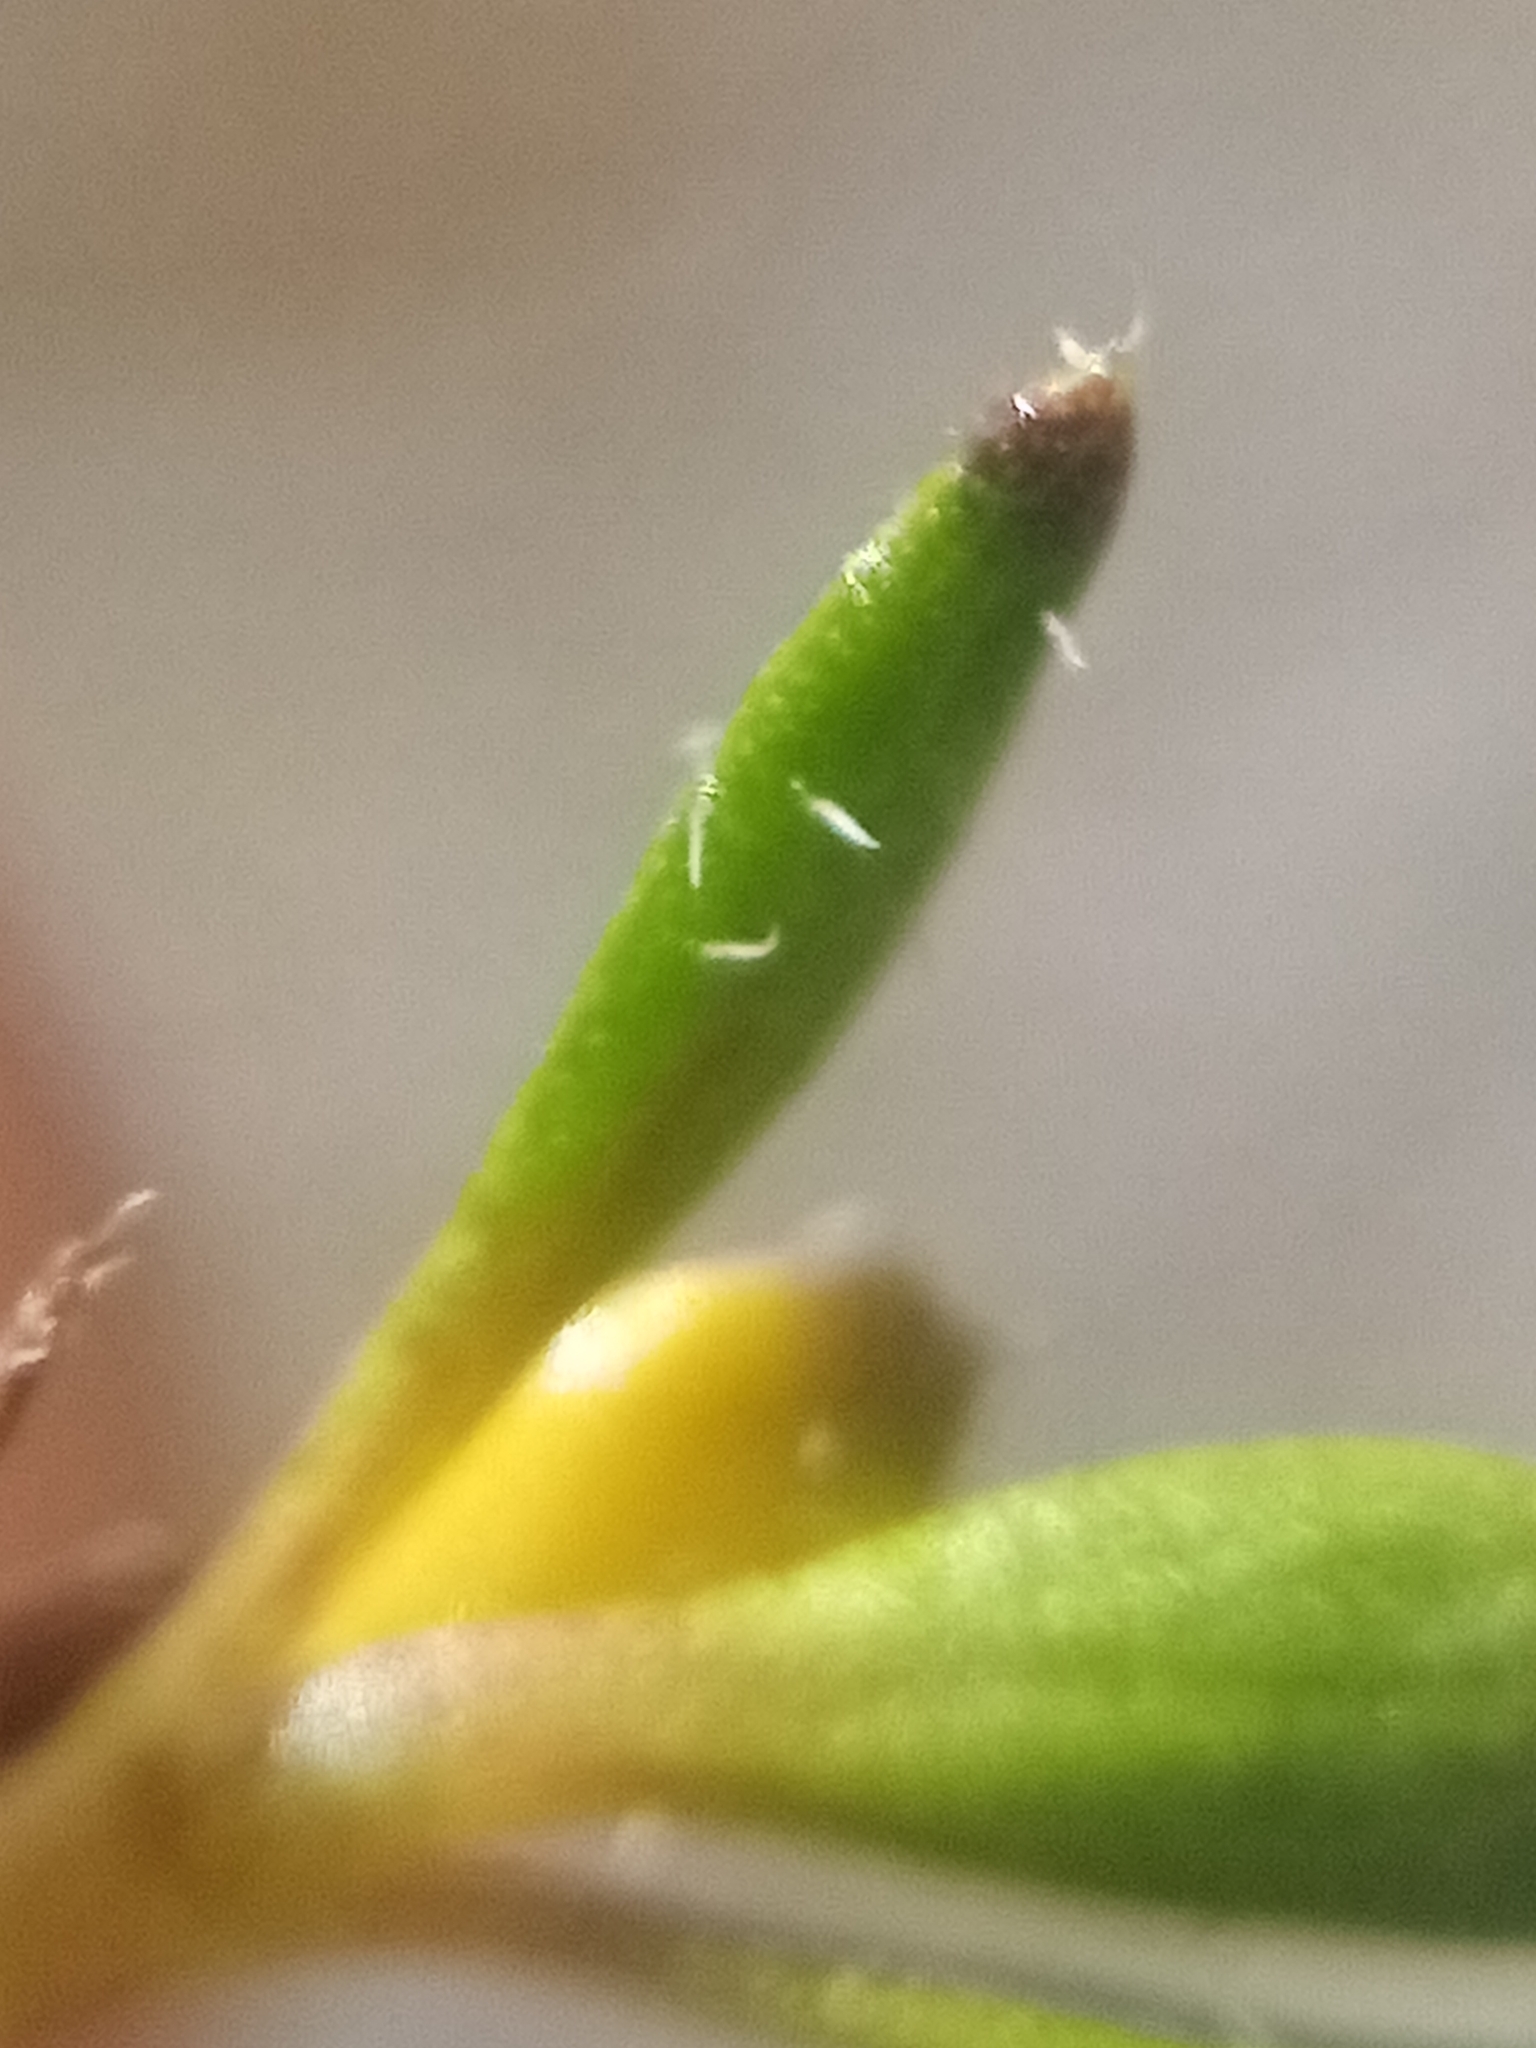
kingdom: Plantae
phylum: Tracheophyta
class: Magnoliopsida
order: Gentianales
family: Rubiaceae
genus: Coprosma
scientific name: Coprosma atropurpurea
